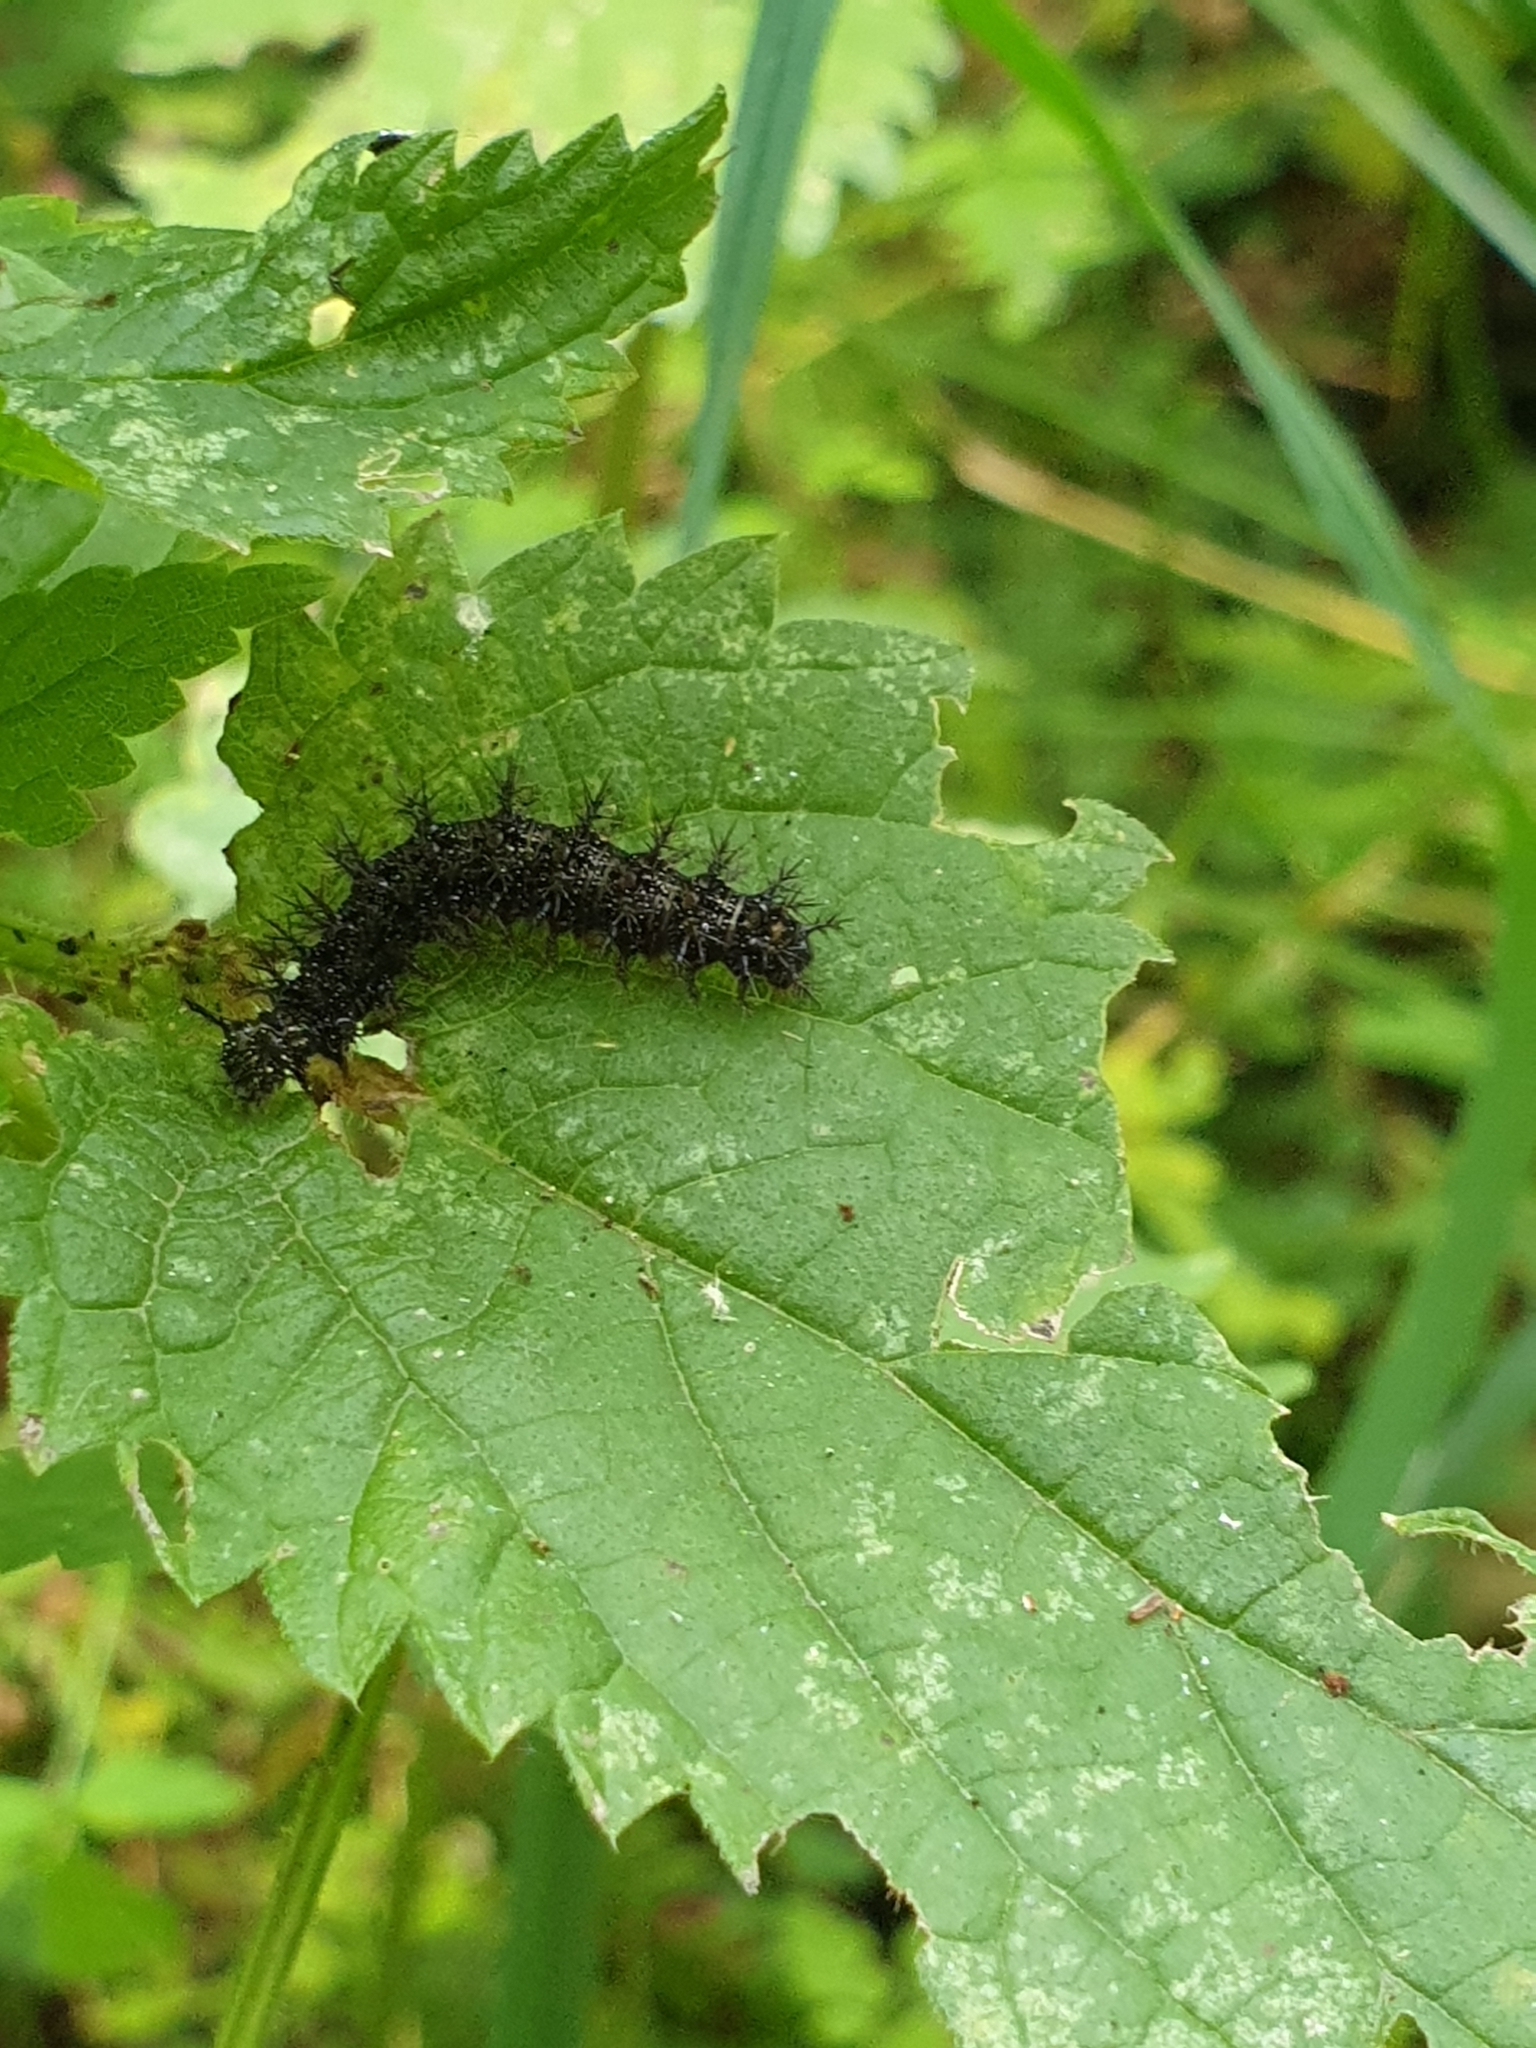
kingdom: Animalia
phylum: Arthropoda
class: Insecta
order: Lepidoptera
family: Nymphalidae
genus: Araschnia
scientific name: Araschnia levana
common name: Map butterfly
